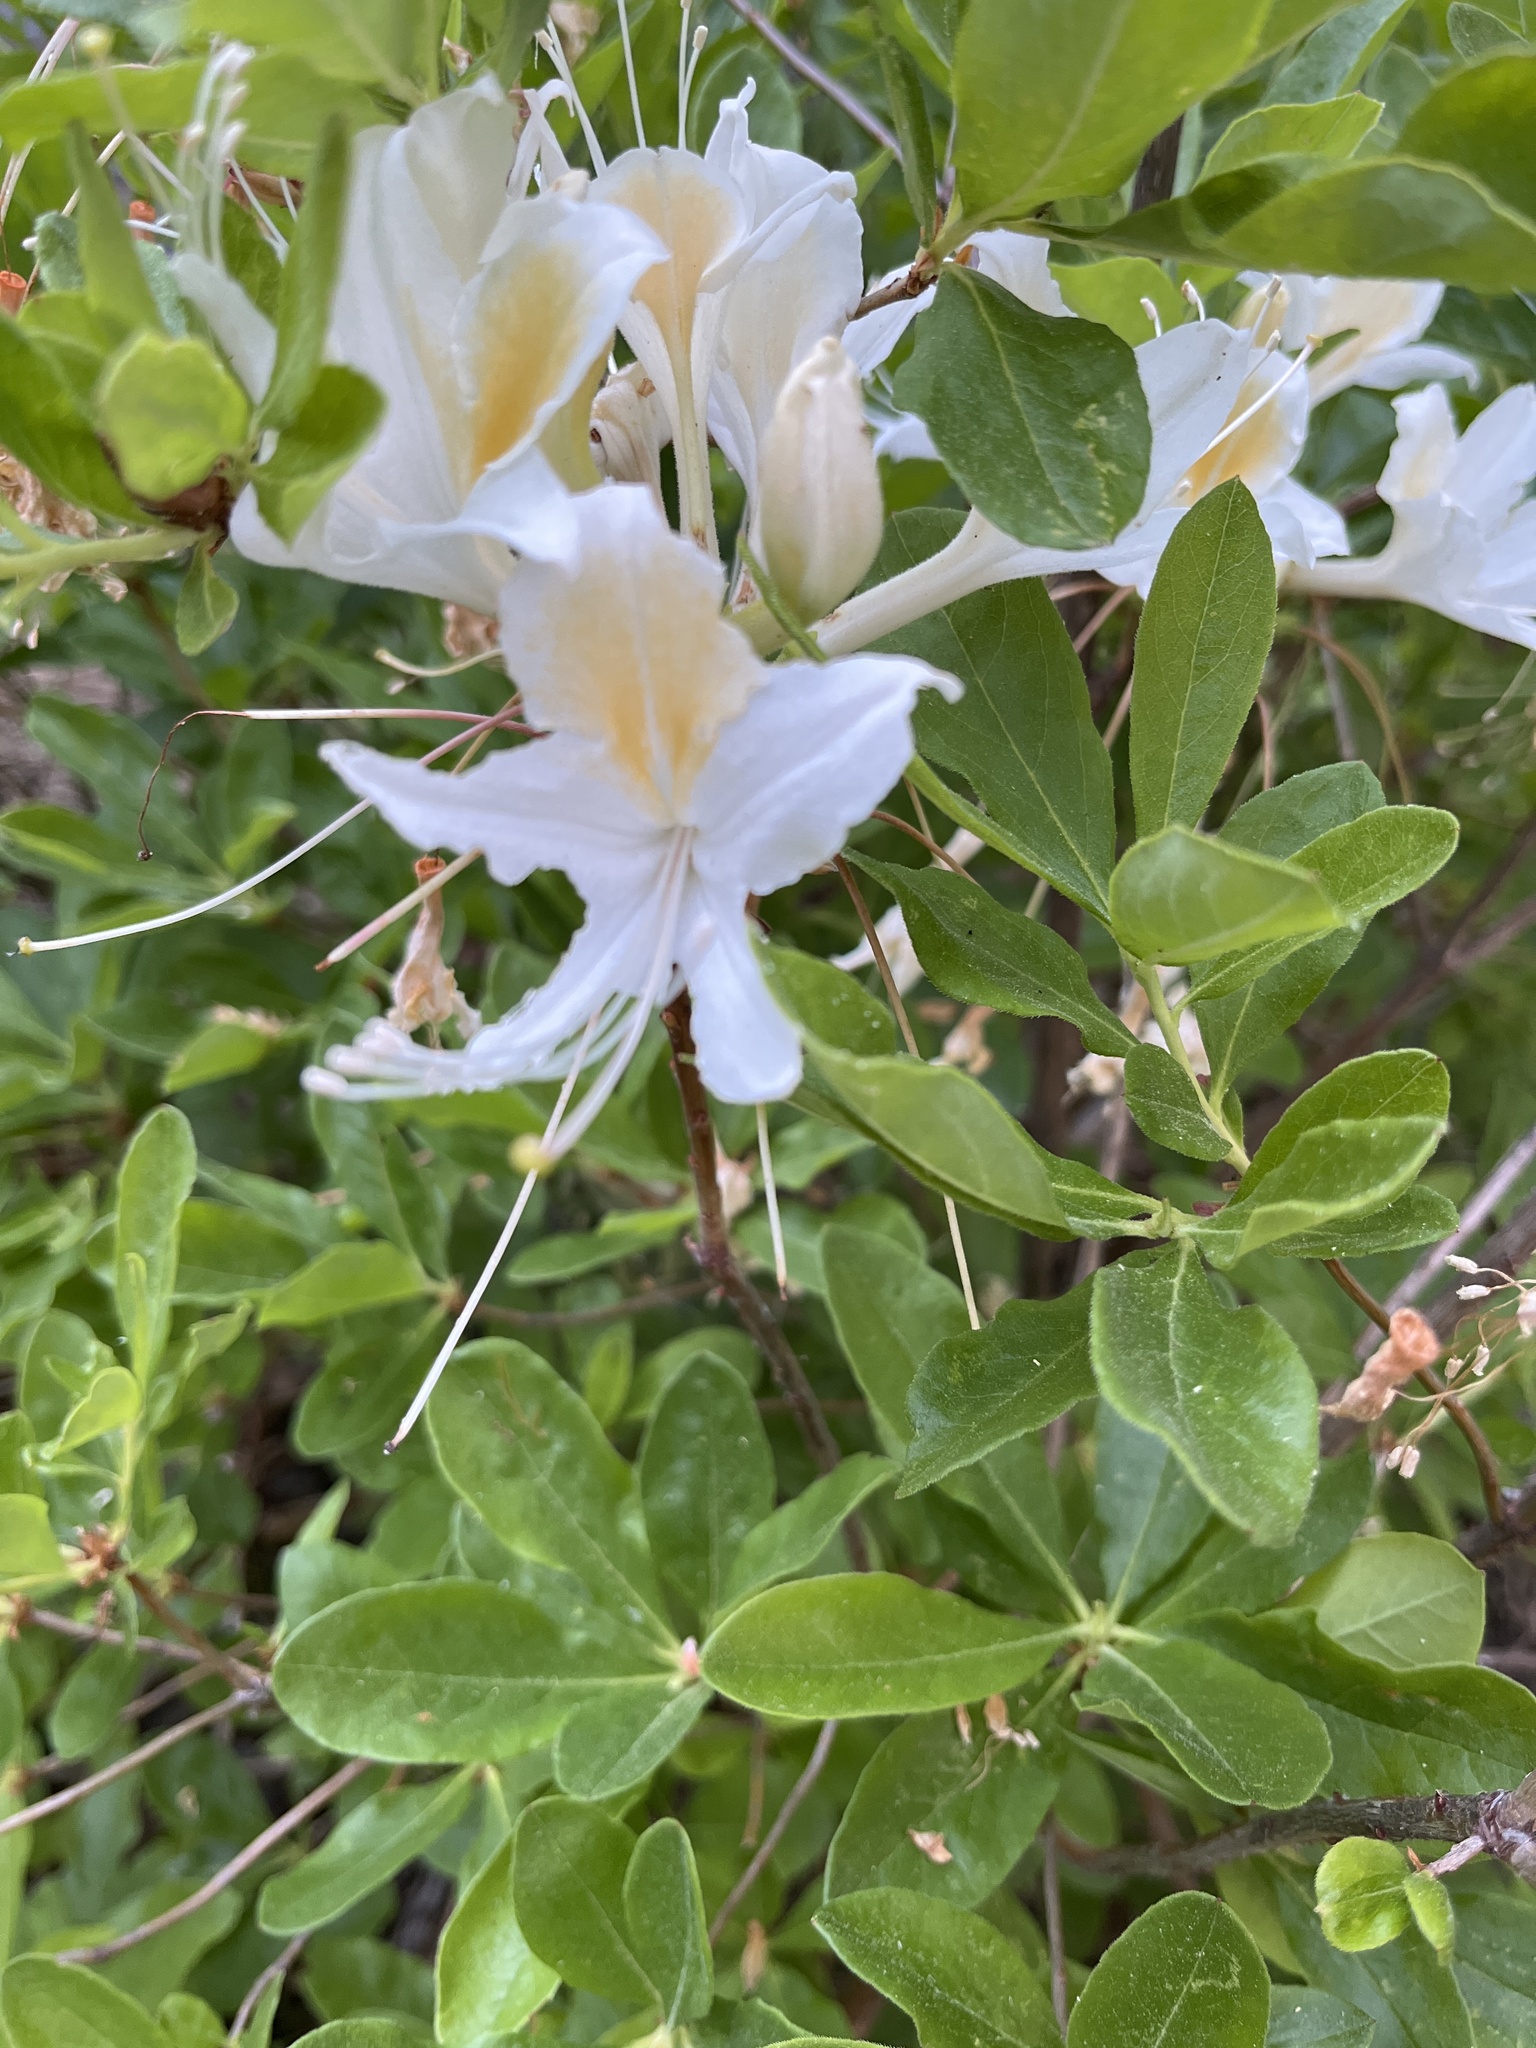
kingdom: Plantae
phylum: Tracheophyta
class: Magnoliopsida
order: Ericales
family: Ericaceae
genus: Rhododendron
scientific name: Rhododendron occidentale
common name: Western azalea
